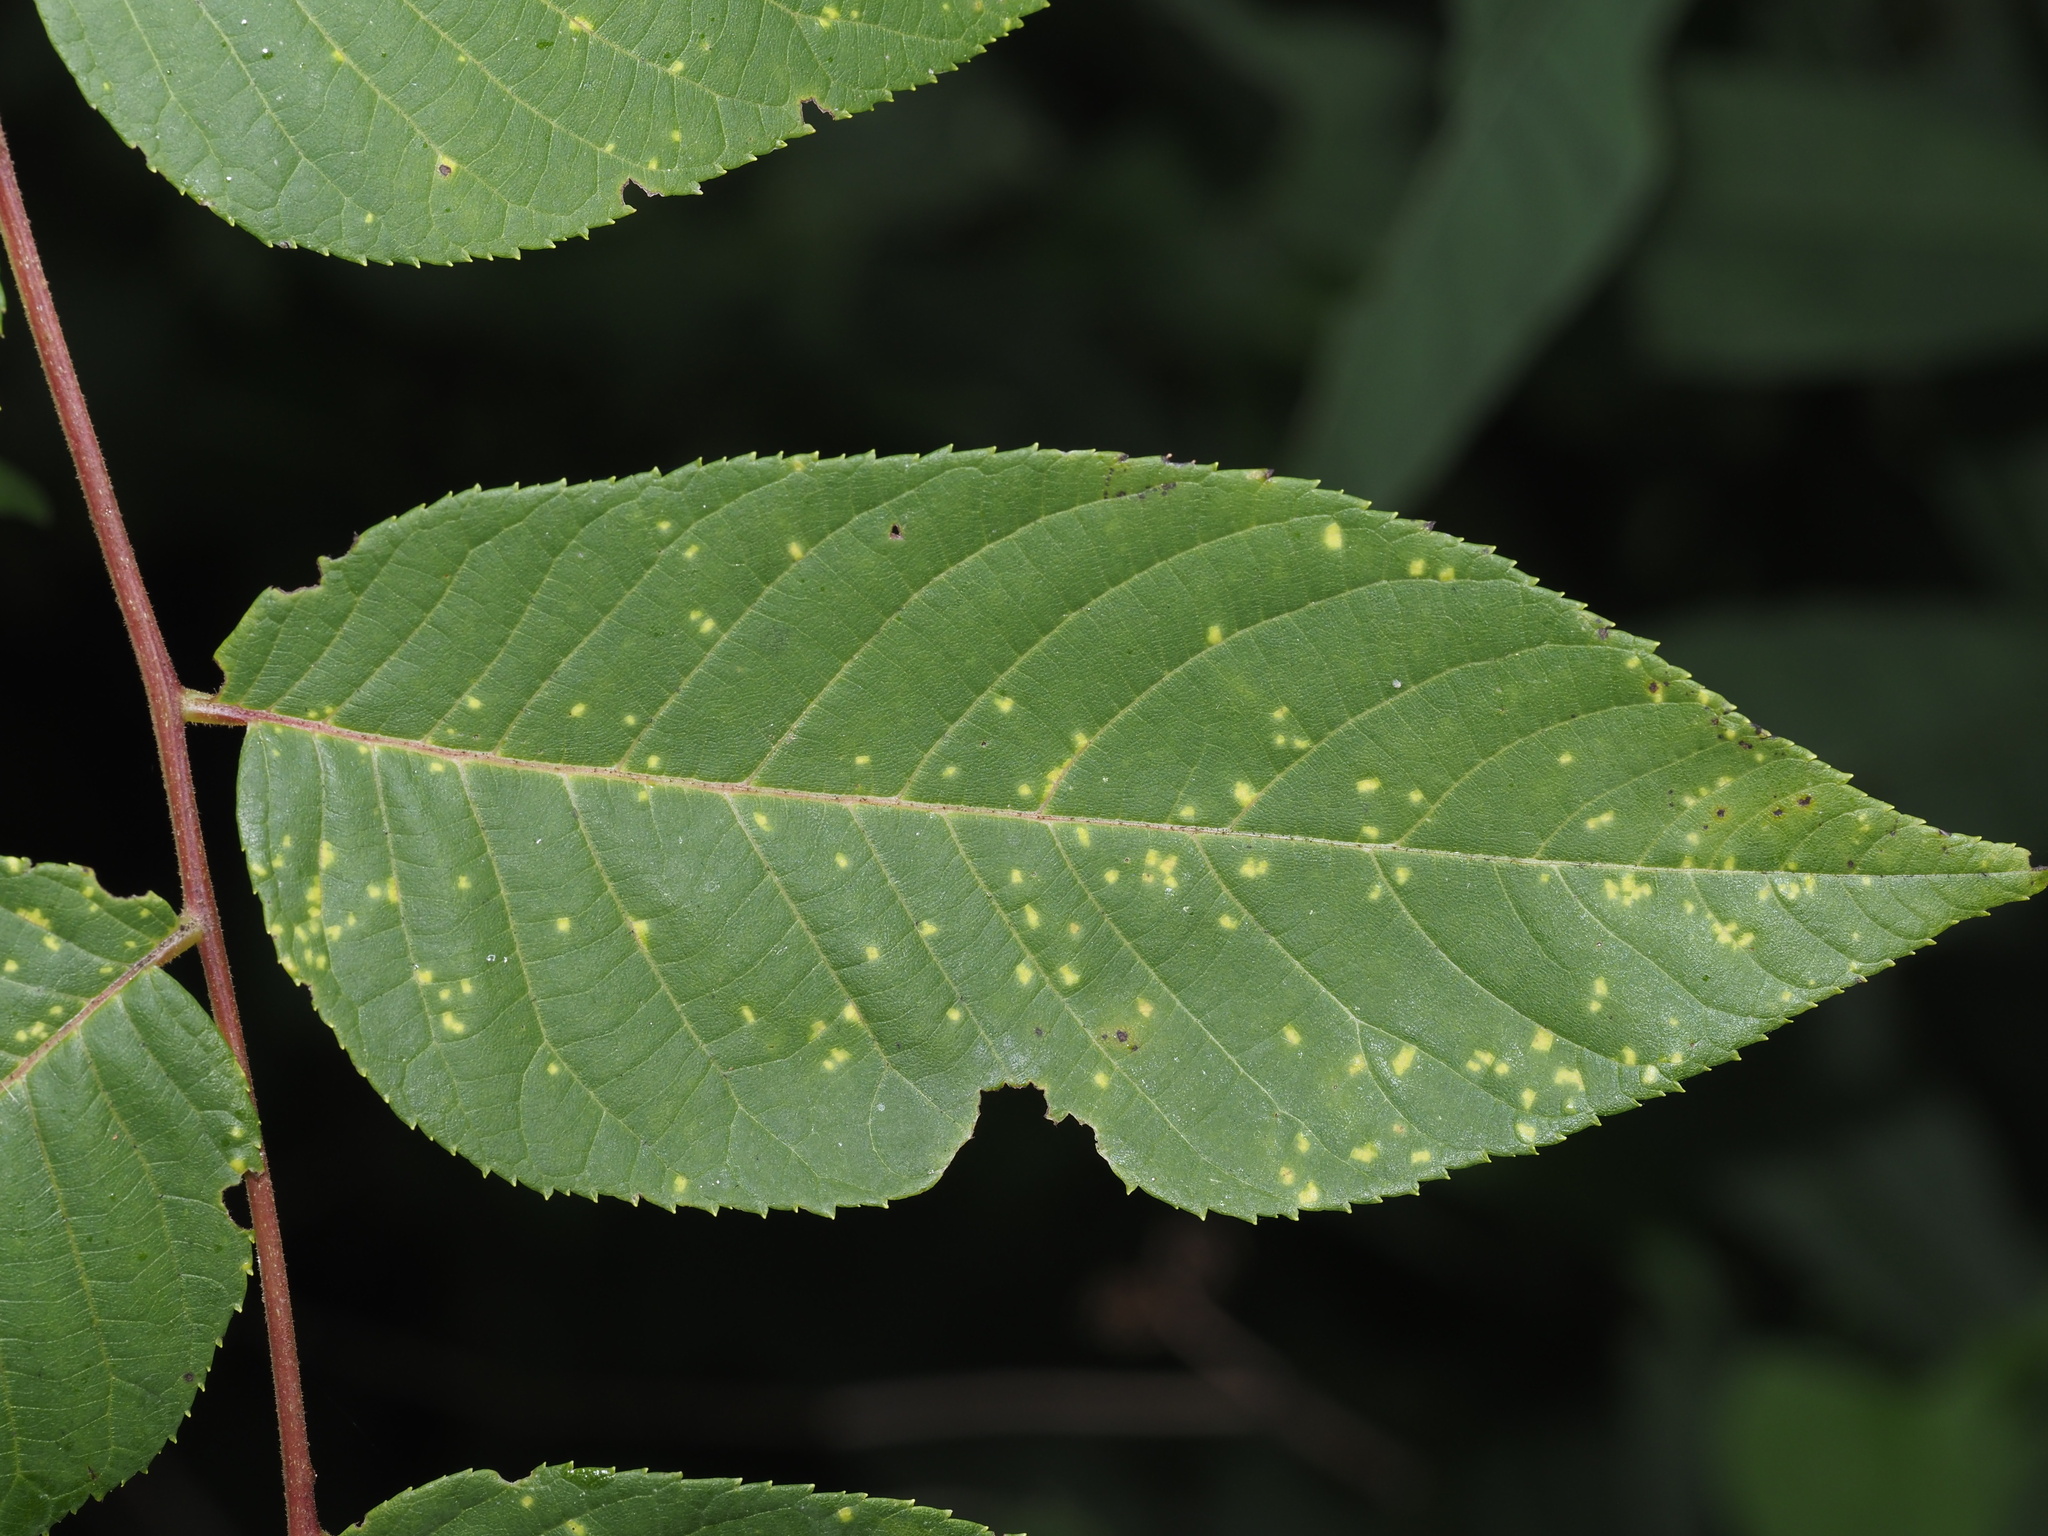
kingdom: Fungi
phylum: Basidiomycota
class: Exobasidiomycetes
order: Microstromatales
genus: Pseudomicrostroma
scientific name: Pseudomicrostroma juglandis
